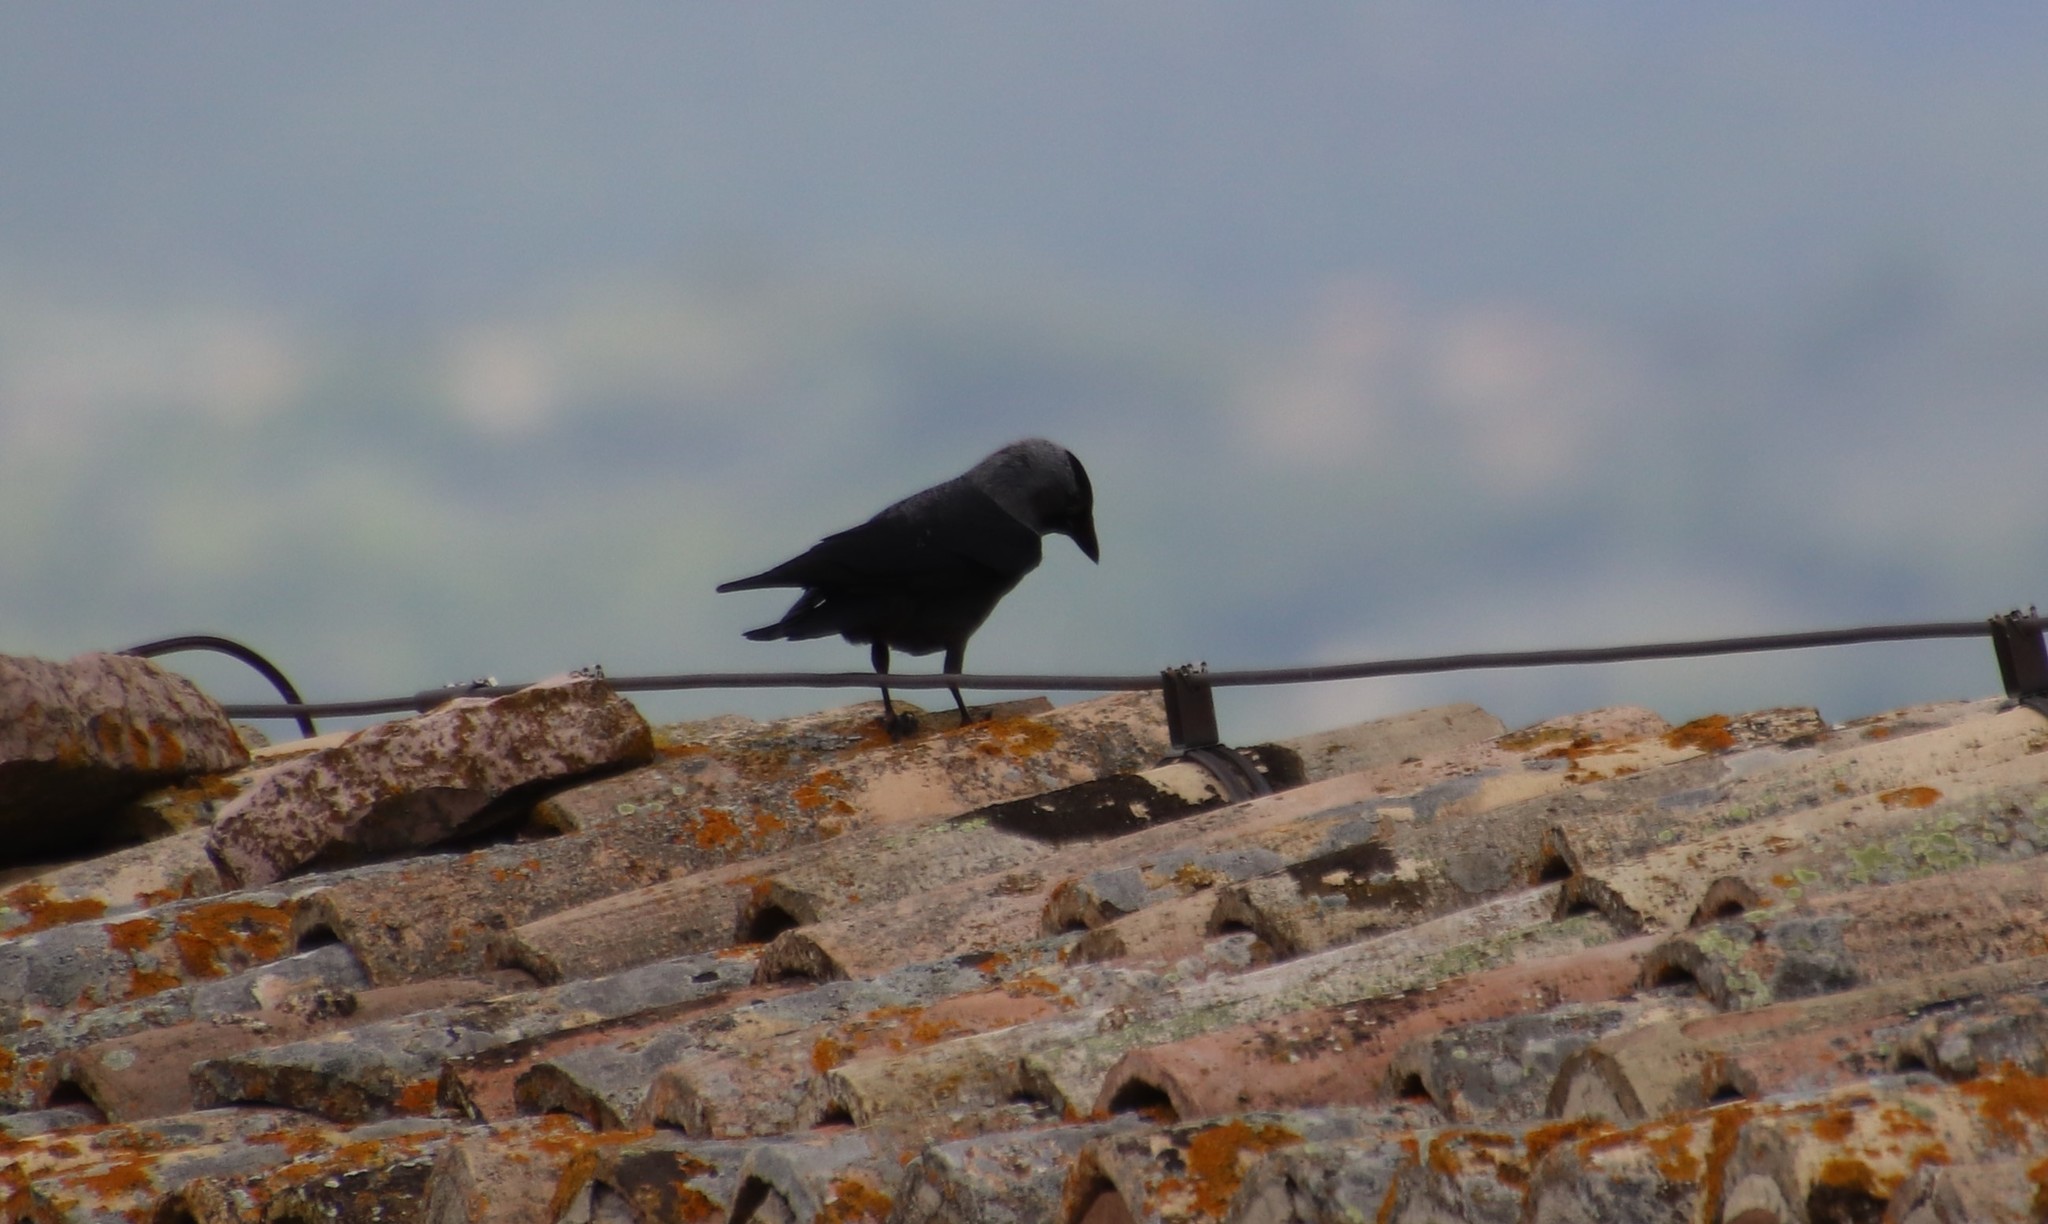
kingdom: Animalia
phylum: Chordata
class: Aves
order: Passeriformes
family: Corvidae
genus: Coloeus
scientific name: Coloeus monedula
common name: Western jackdaw
